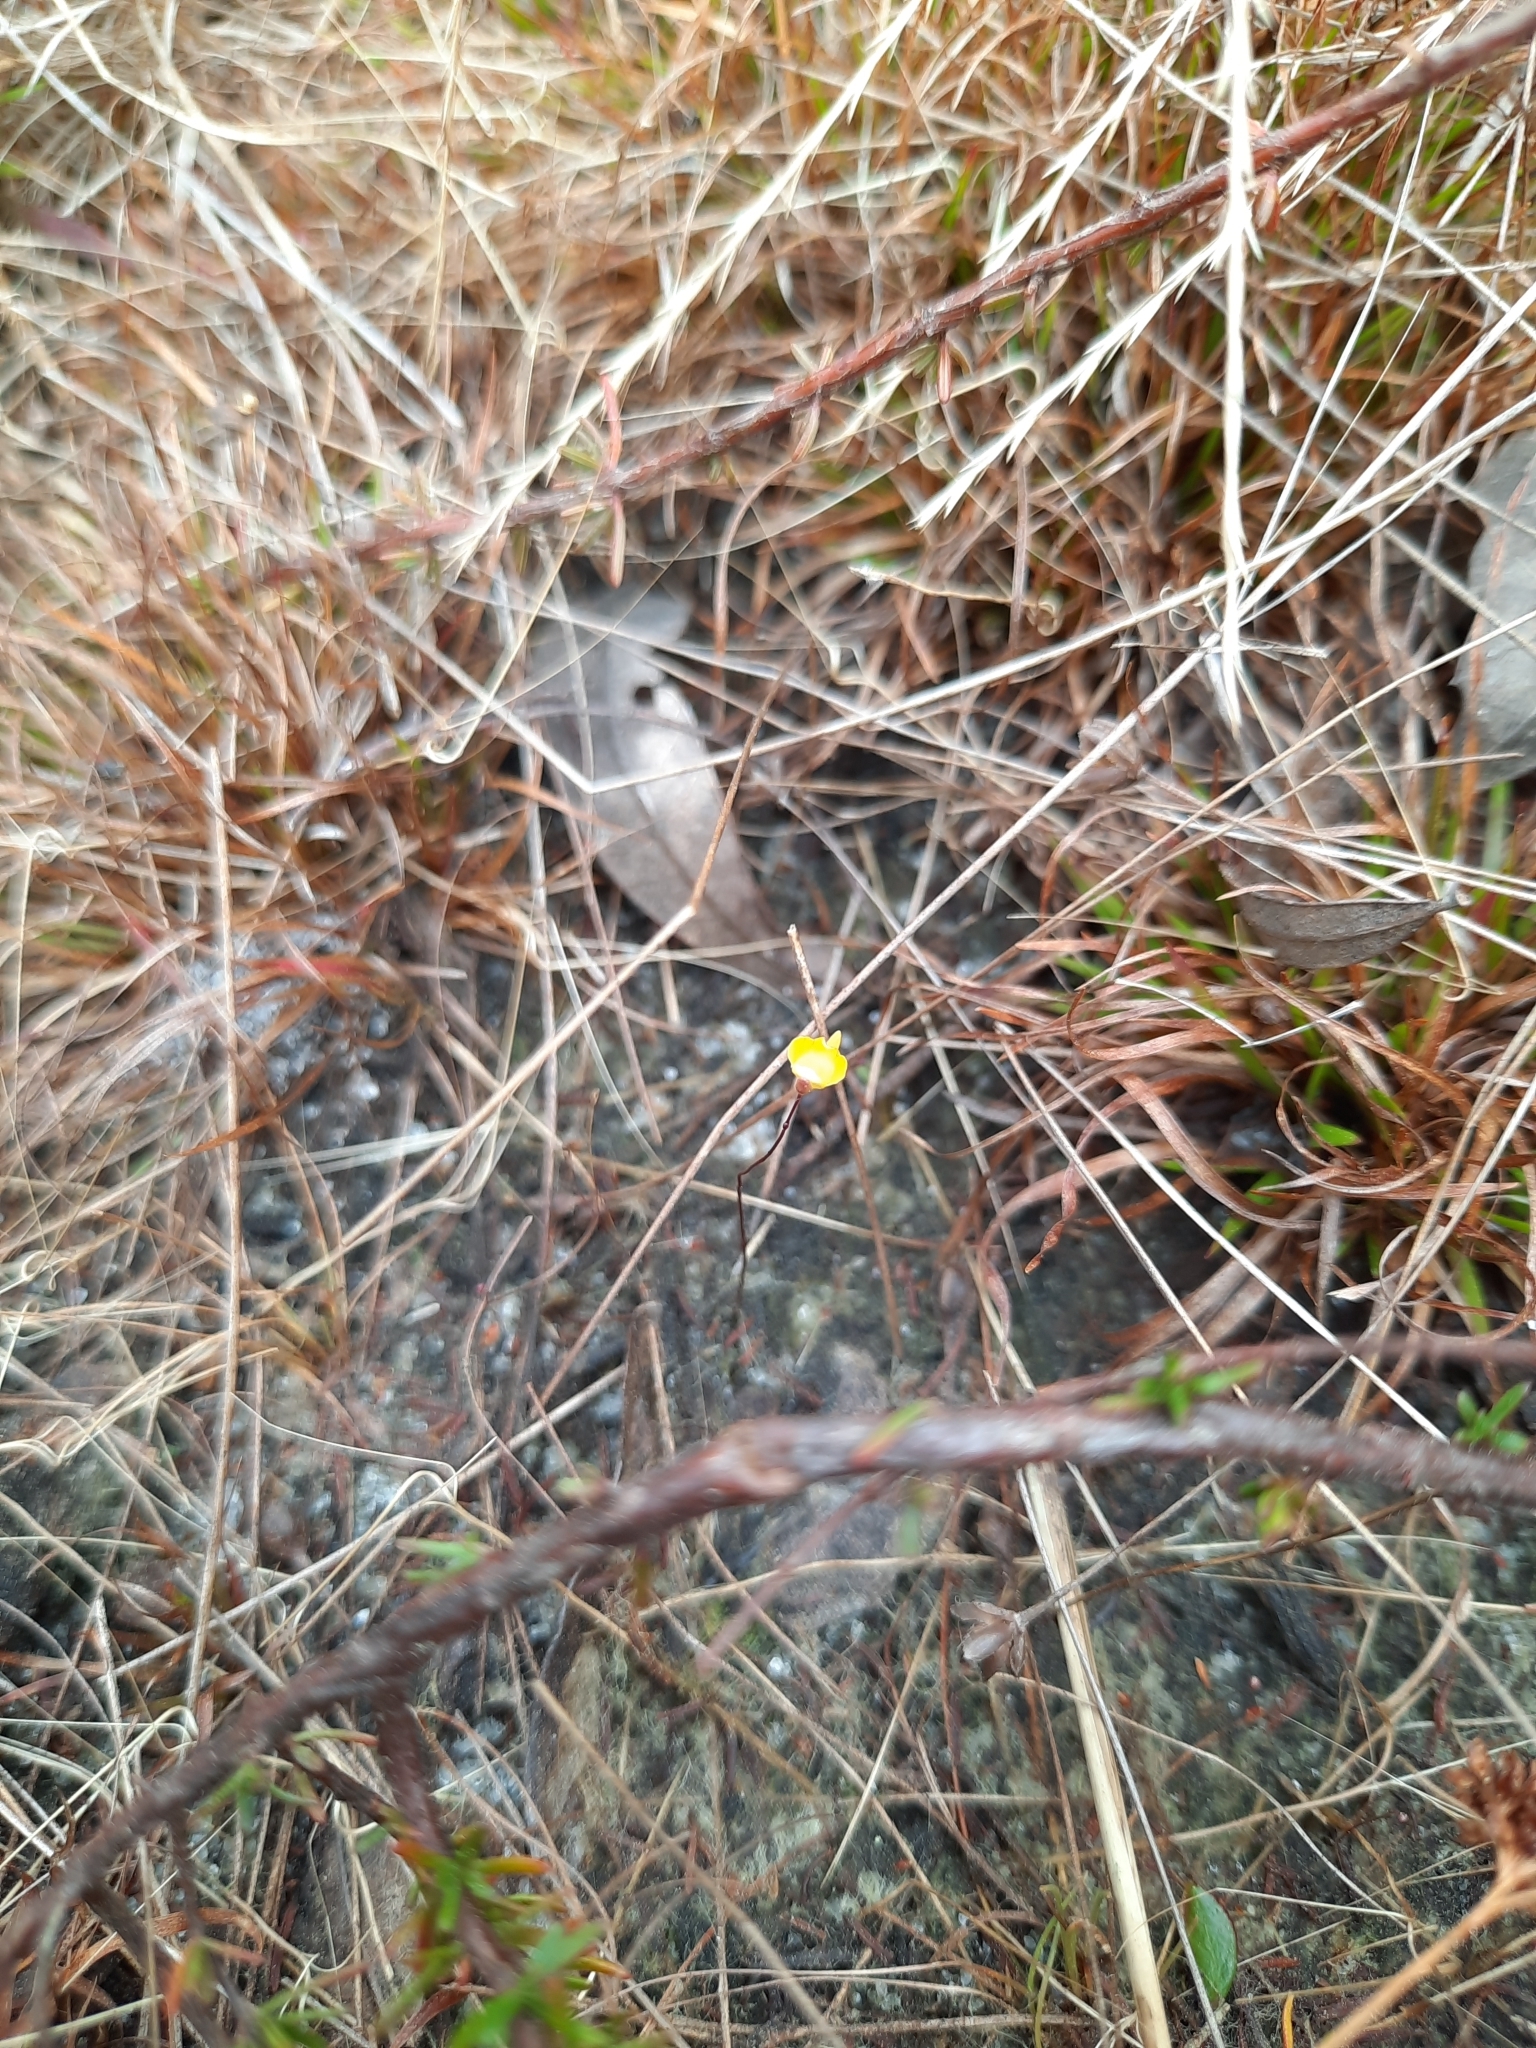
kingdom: Plantae
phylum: Tracheophyta
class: Magnoliopsida
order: Lamiales
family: Lentibulariaceae
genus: Utricularia
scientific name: Utricularia subulata
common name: Tiny bladderwort
